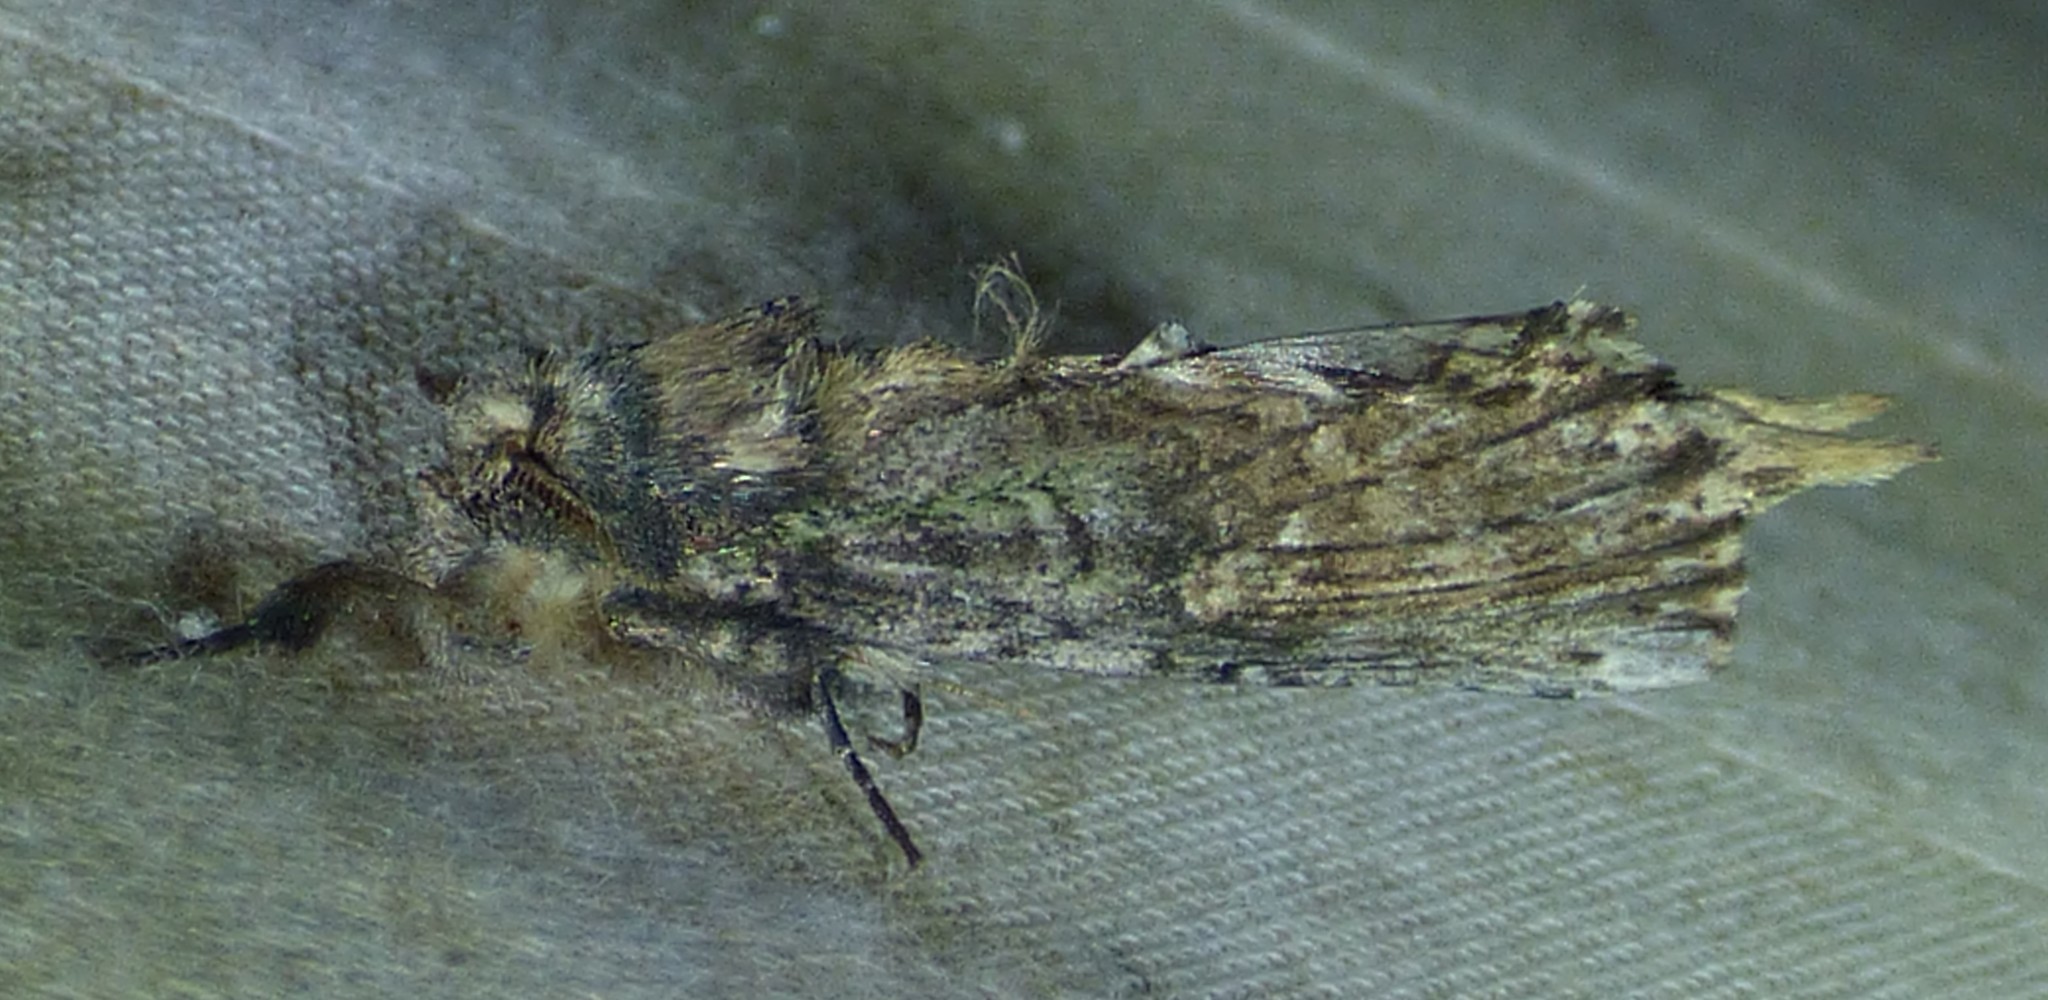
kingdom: Animalia
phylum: Arthropoda
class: Insecta
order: Lepidoptera
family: Notodontidae
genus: Schizura
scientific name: Schizura
